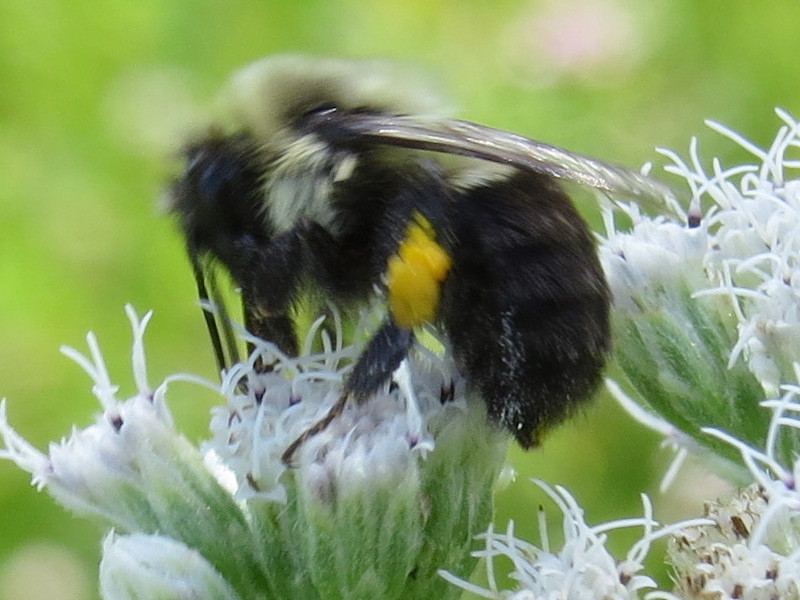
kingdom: Animalia
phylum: Arthropoda
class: Insecta
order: Hymenoptera
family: Apidae
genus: Bombus
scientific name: Bombus impatiens
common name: Common eastern bumble bee
